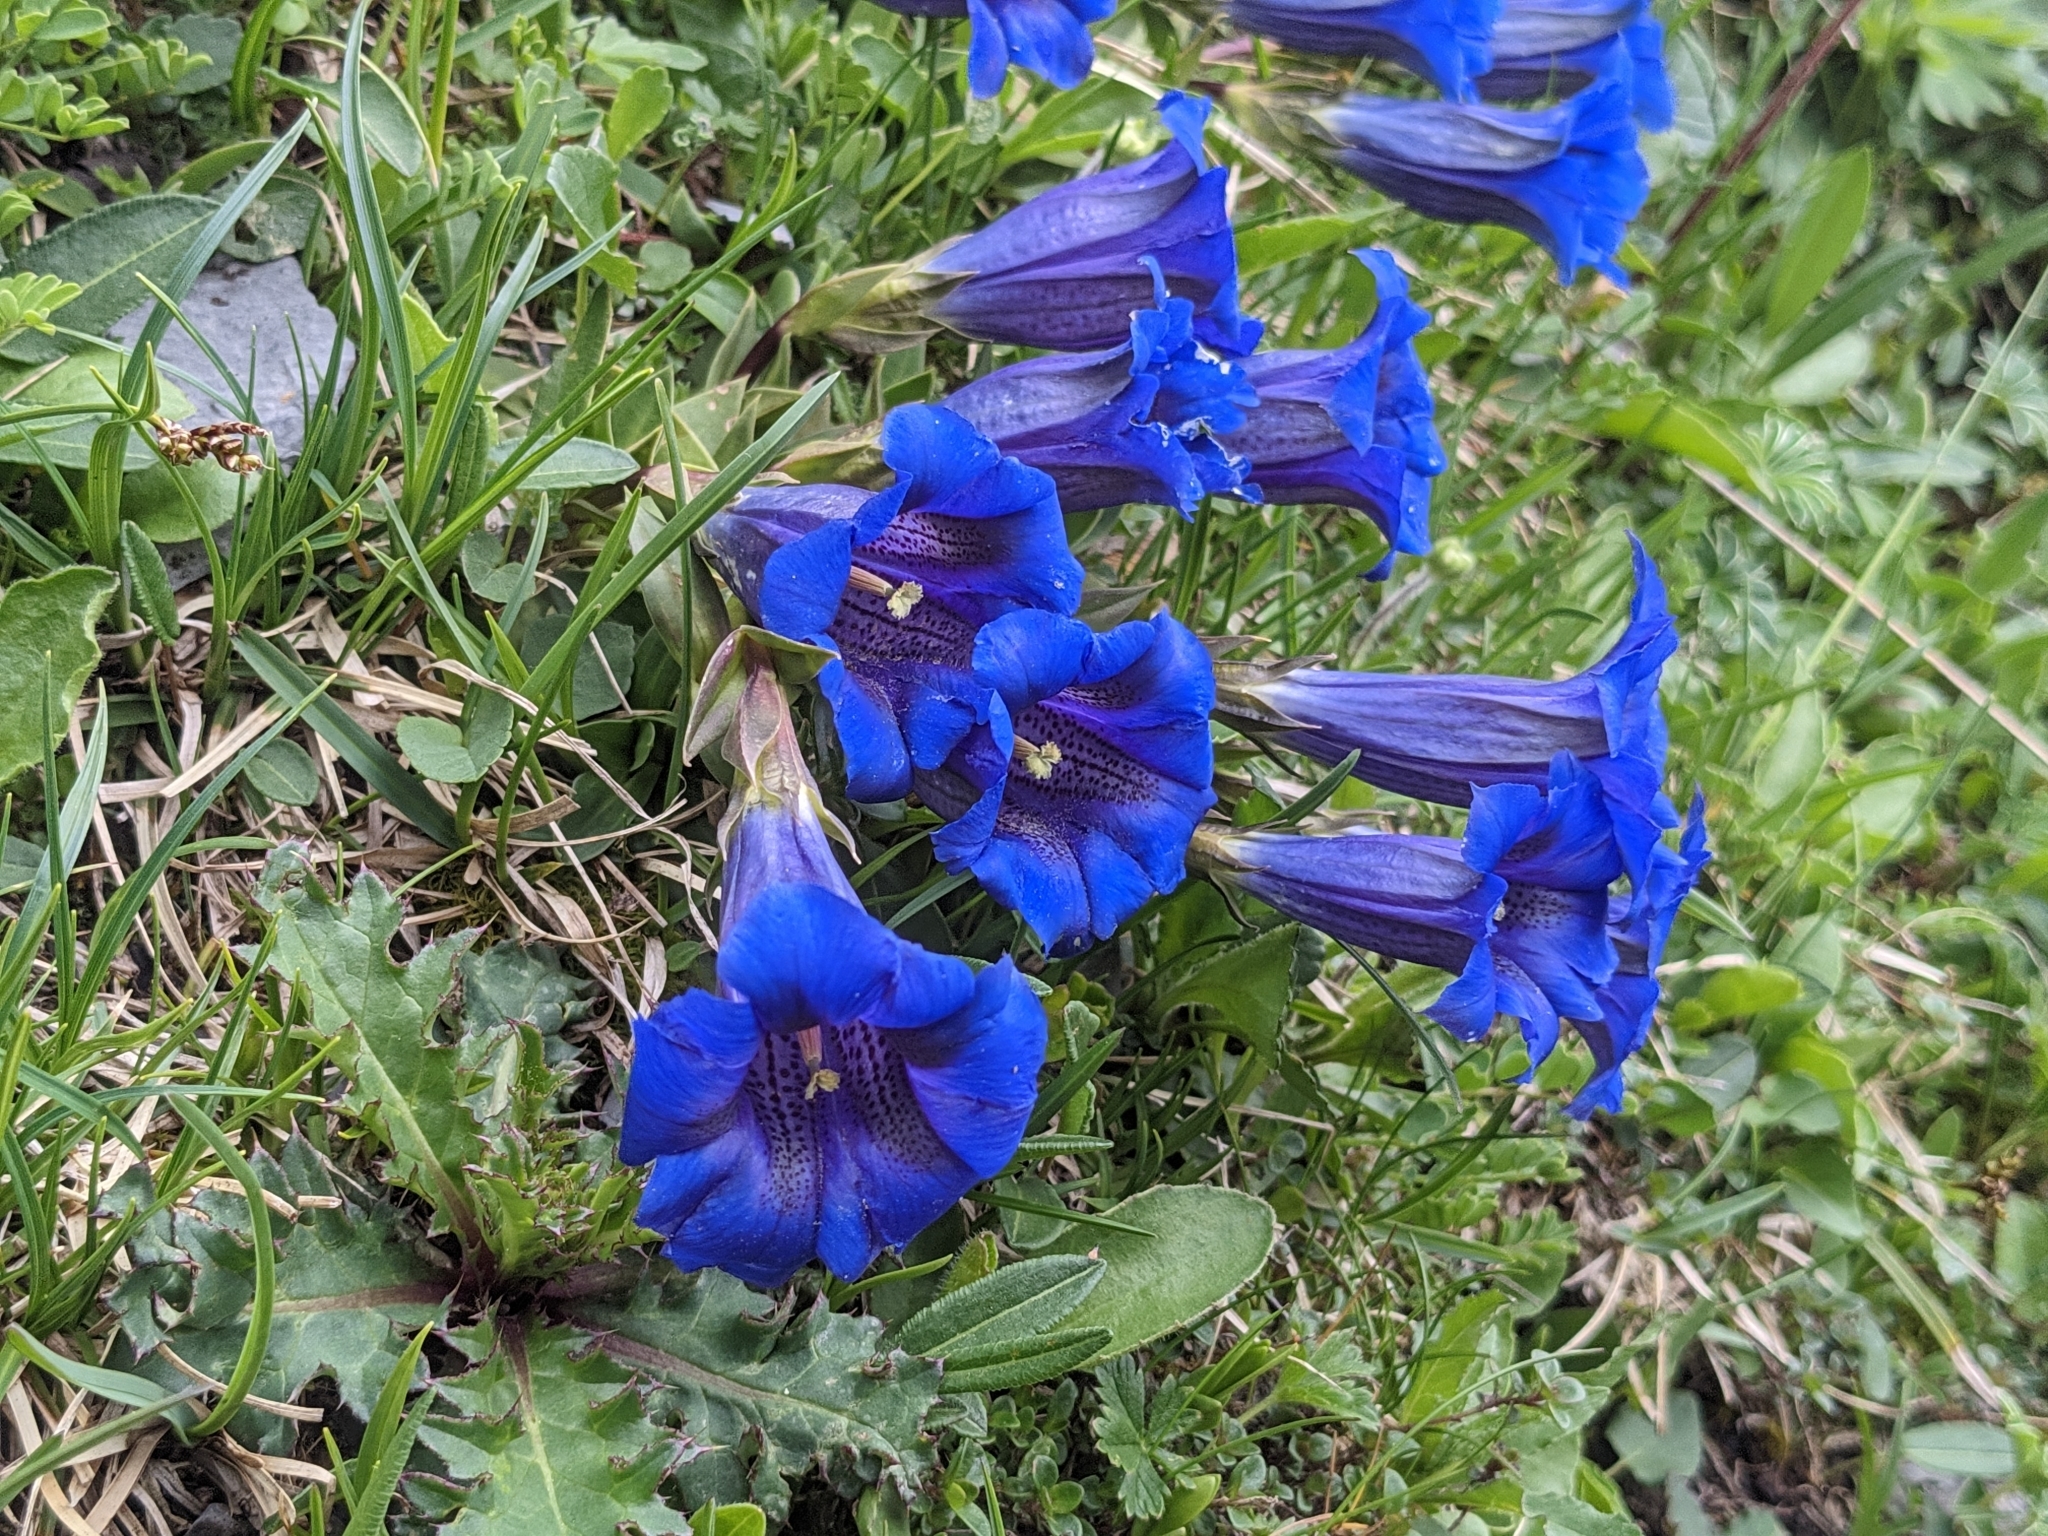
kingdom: Plantae
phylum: Tracheophyta
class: Magnoliopsida
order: Gentianales
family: Gentianaceae
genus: Gentiana
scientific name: Gentiana clusii
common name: Trumpet gentian
